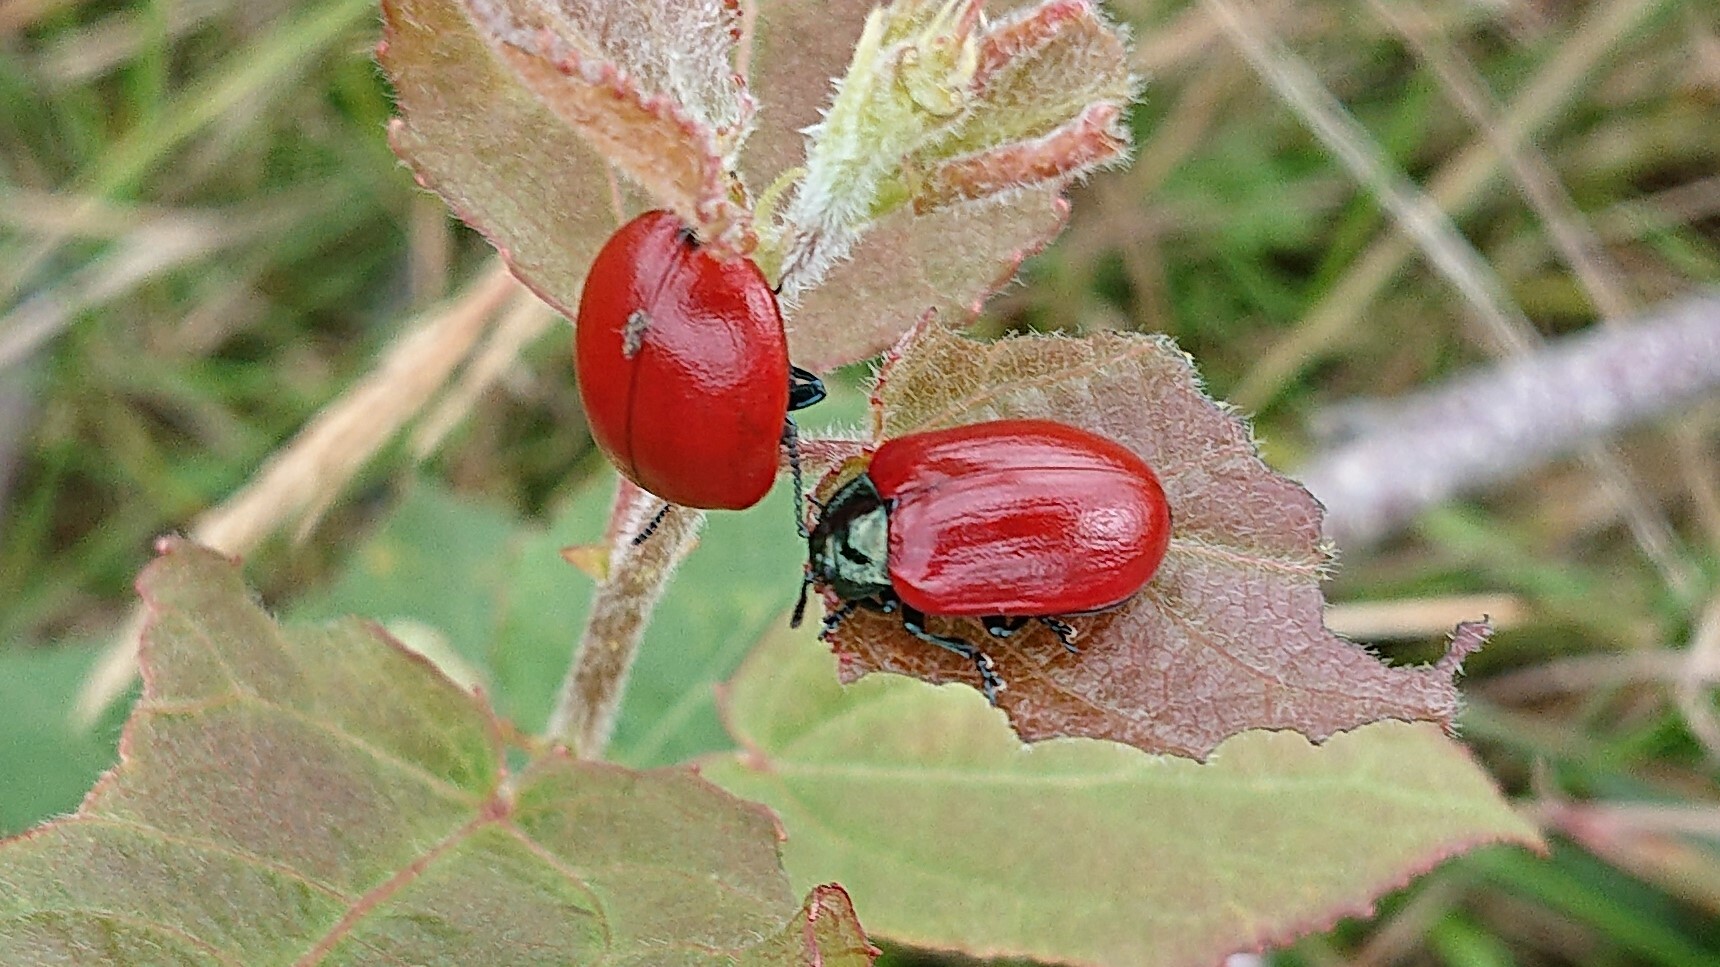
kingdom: Animalia
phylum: Arthropoda
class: Insecta
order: Coleoptera
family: Chrysomelidae
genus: Chrysomela
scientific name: Chrysomela populi
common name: Red poplar leaf beetle
